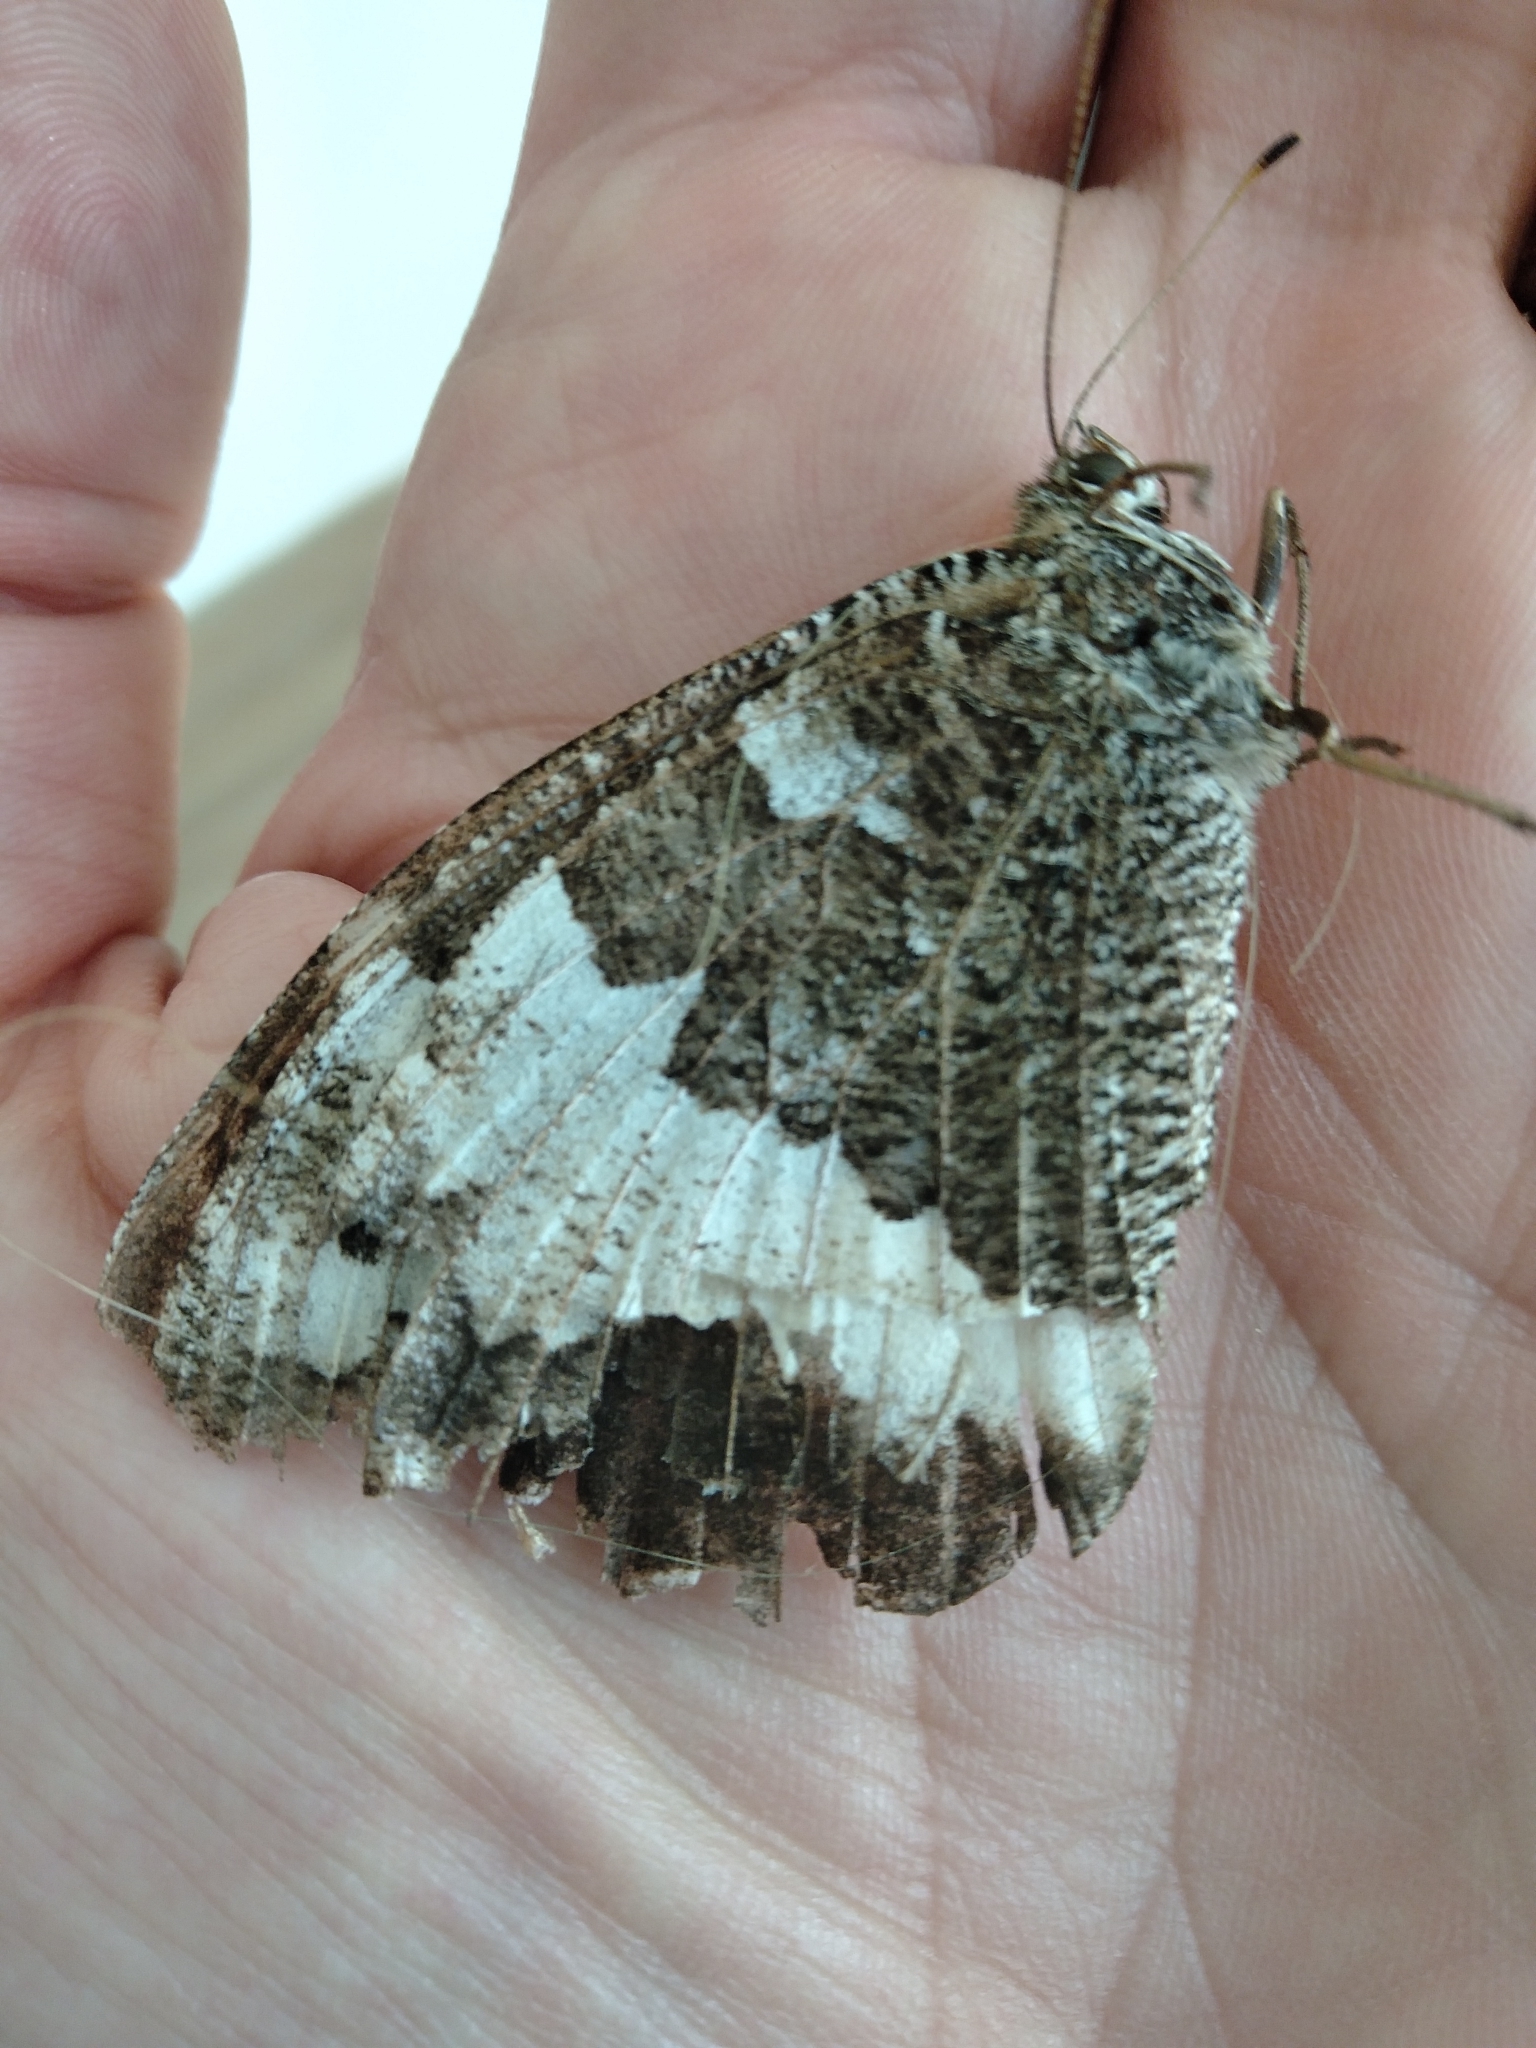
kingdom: Animalia
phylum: Arthropoda
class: Insecta
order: Lepidoptera
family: Lycaenidae
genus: Loweia
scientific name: Loweia tityrus
